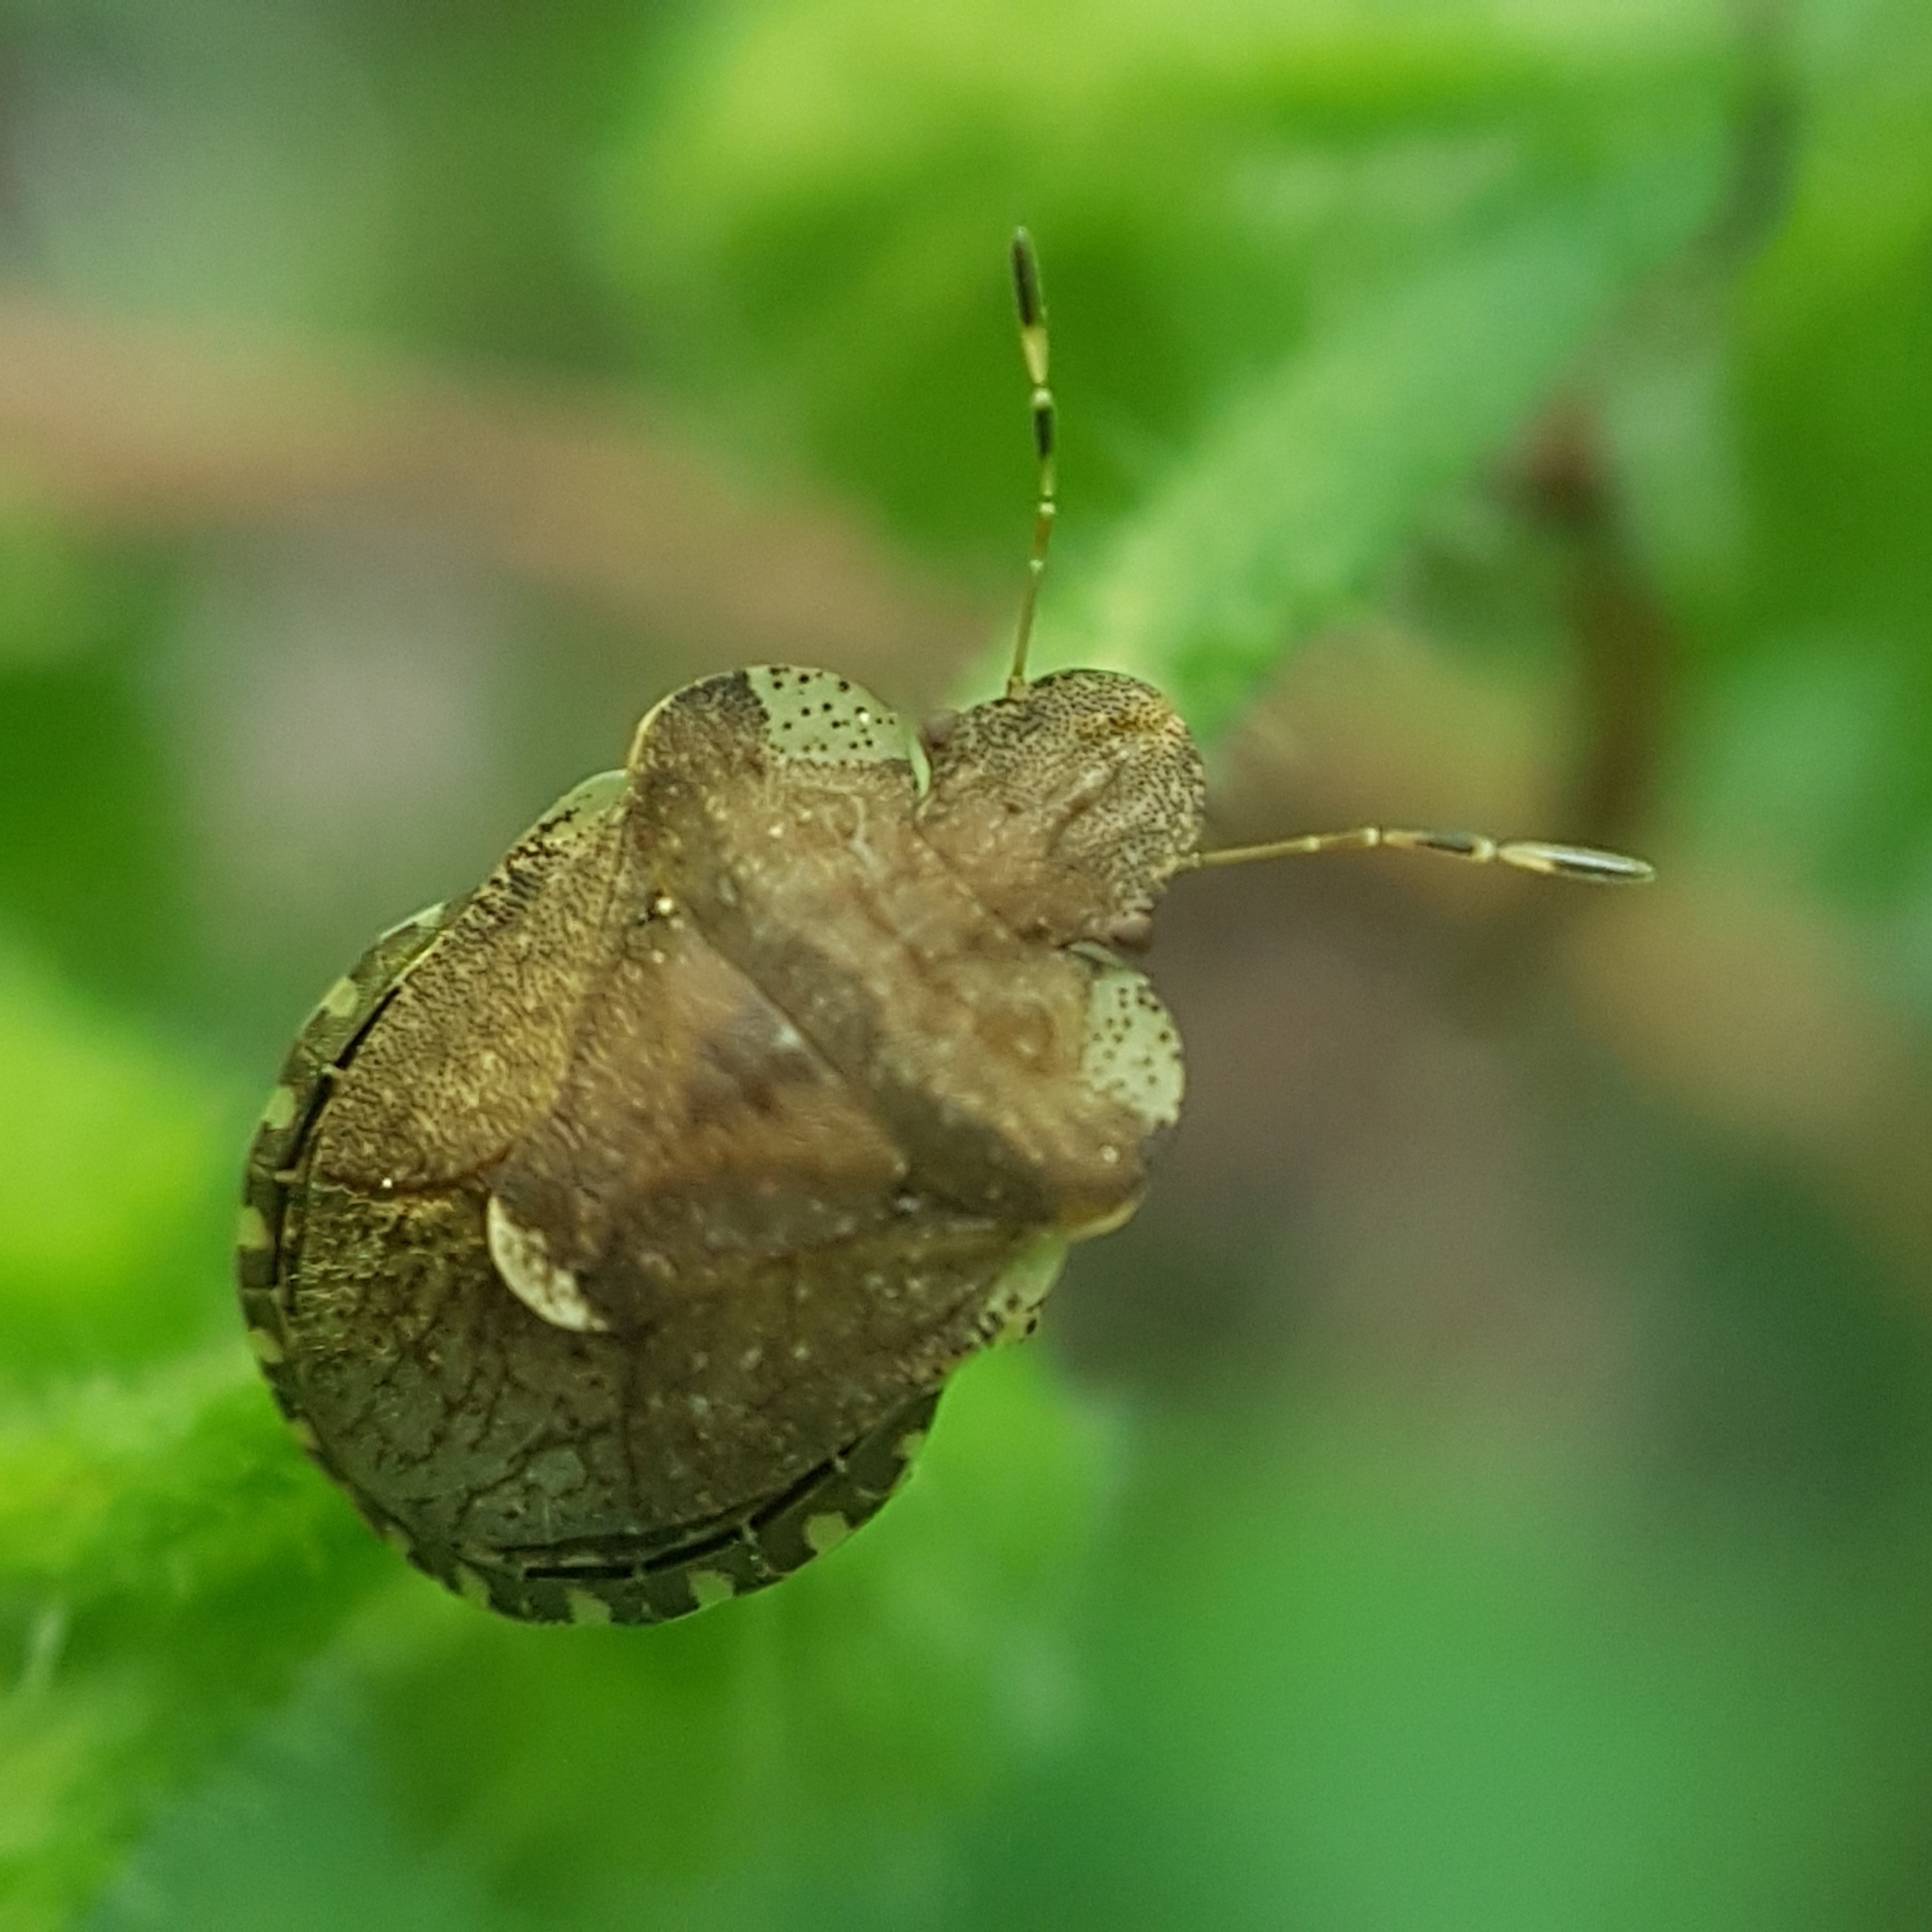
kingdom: Animalia
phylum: Arthropoda
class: Insecta
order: Hemiptera
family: Pentatomidae
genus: Dyroderes
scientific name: Dyroderes umbraculatus
